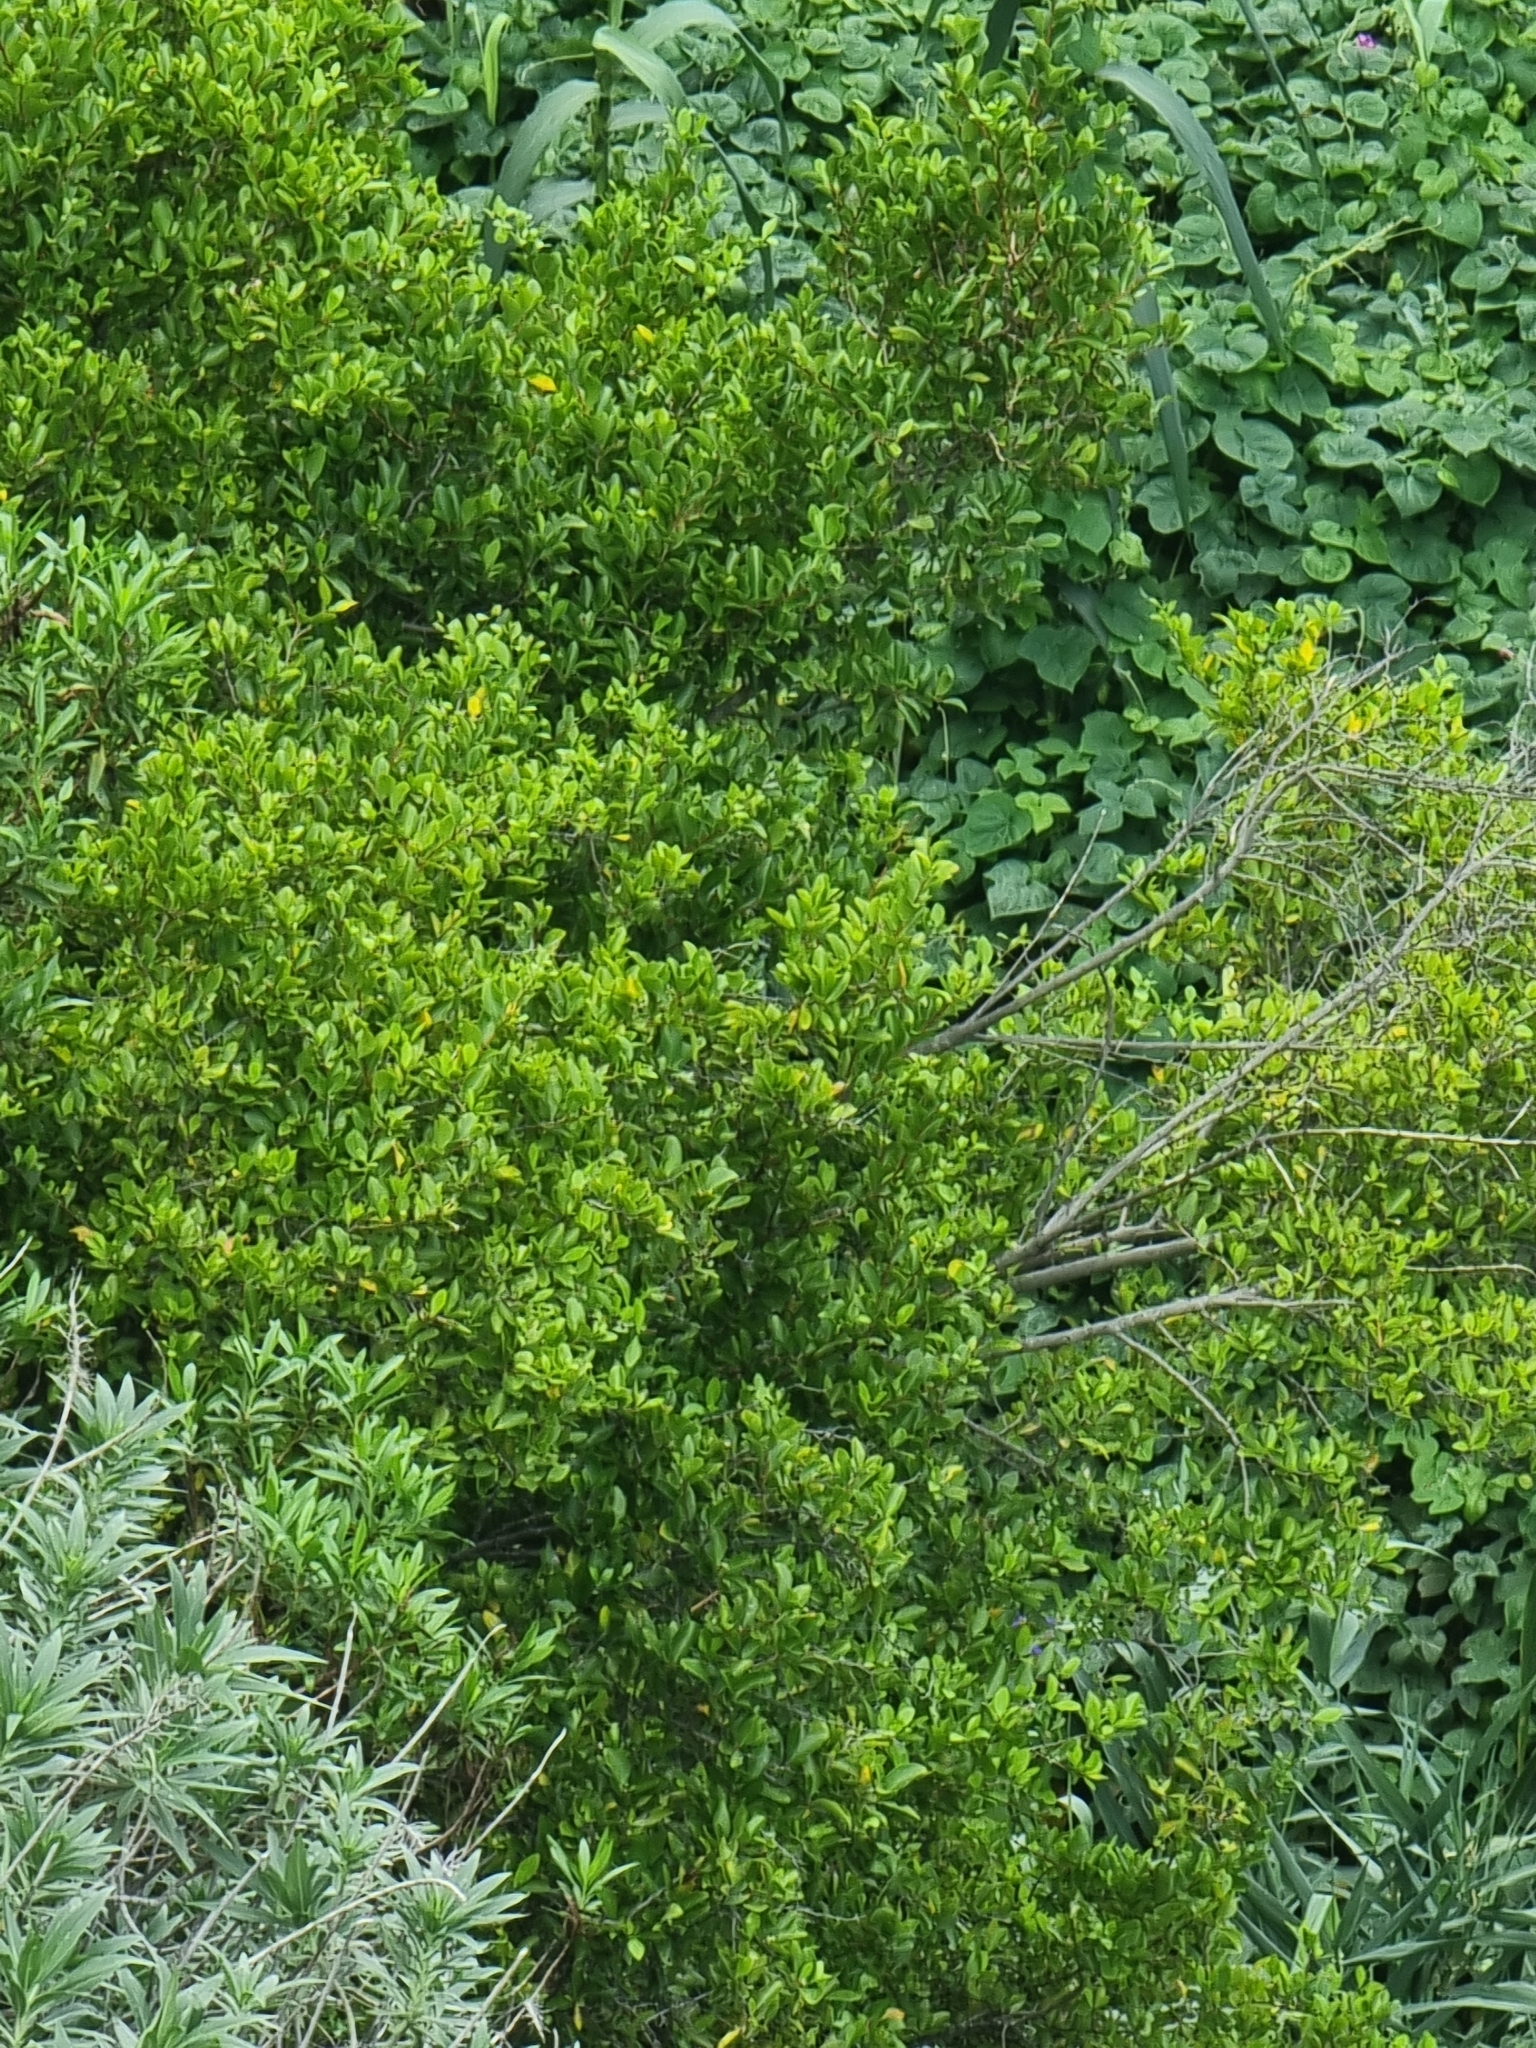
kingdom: Plantae
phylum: Tracheophyta
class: Magnoliopsida
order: Celastrales
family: Celastraceae
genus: Gymnosporia
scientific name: Gymnosporia dryandri
